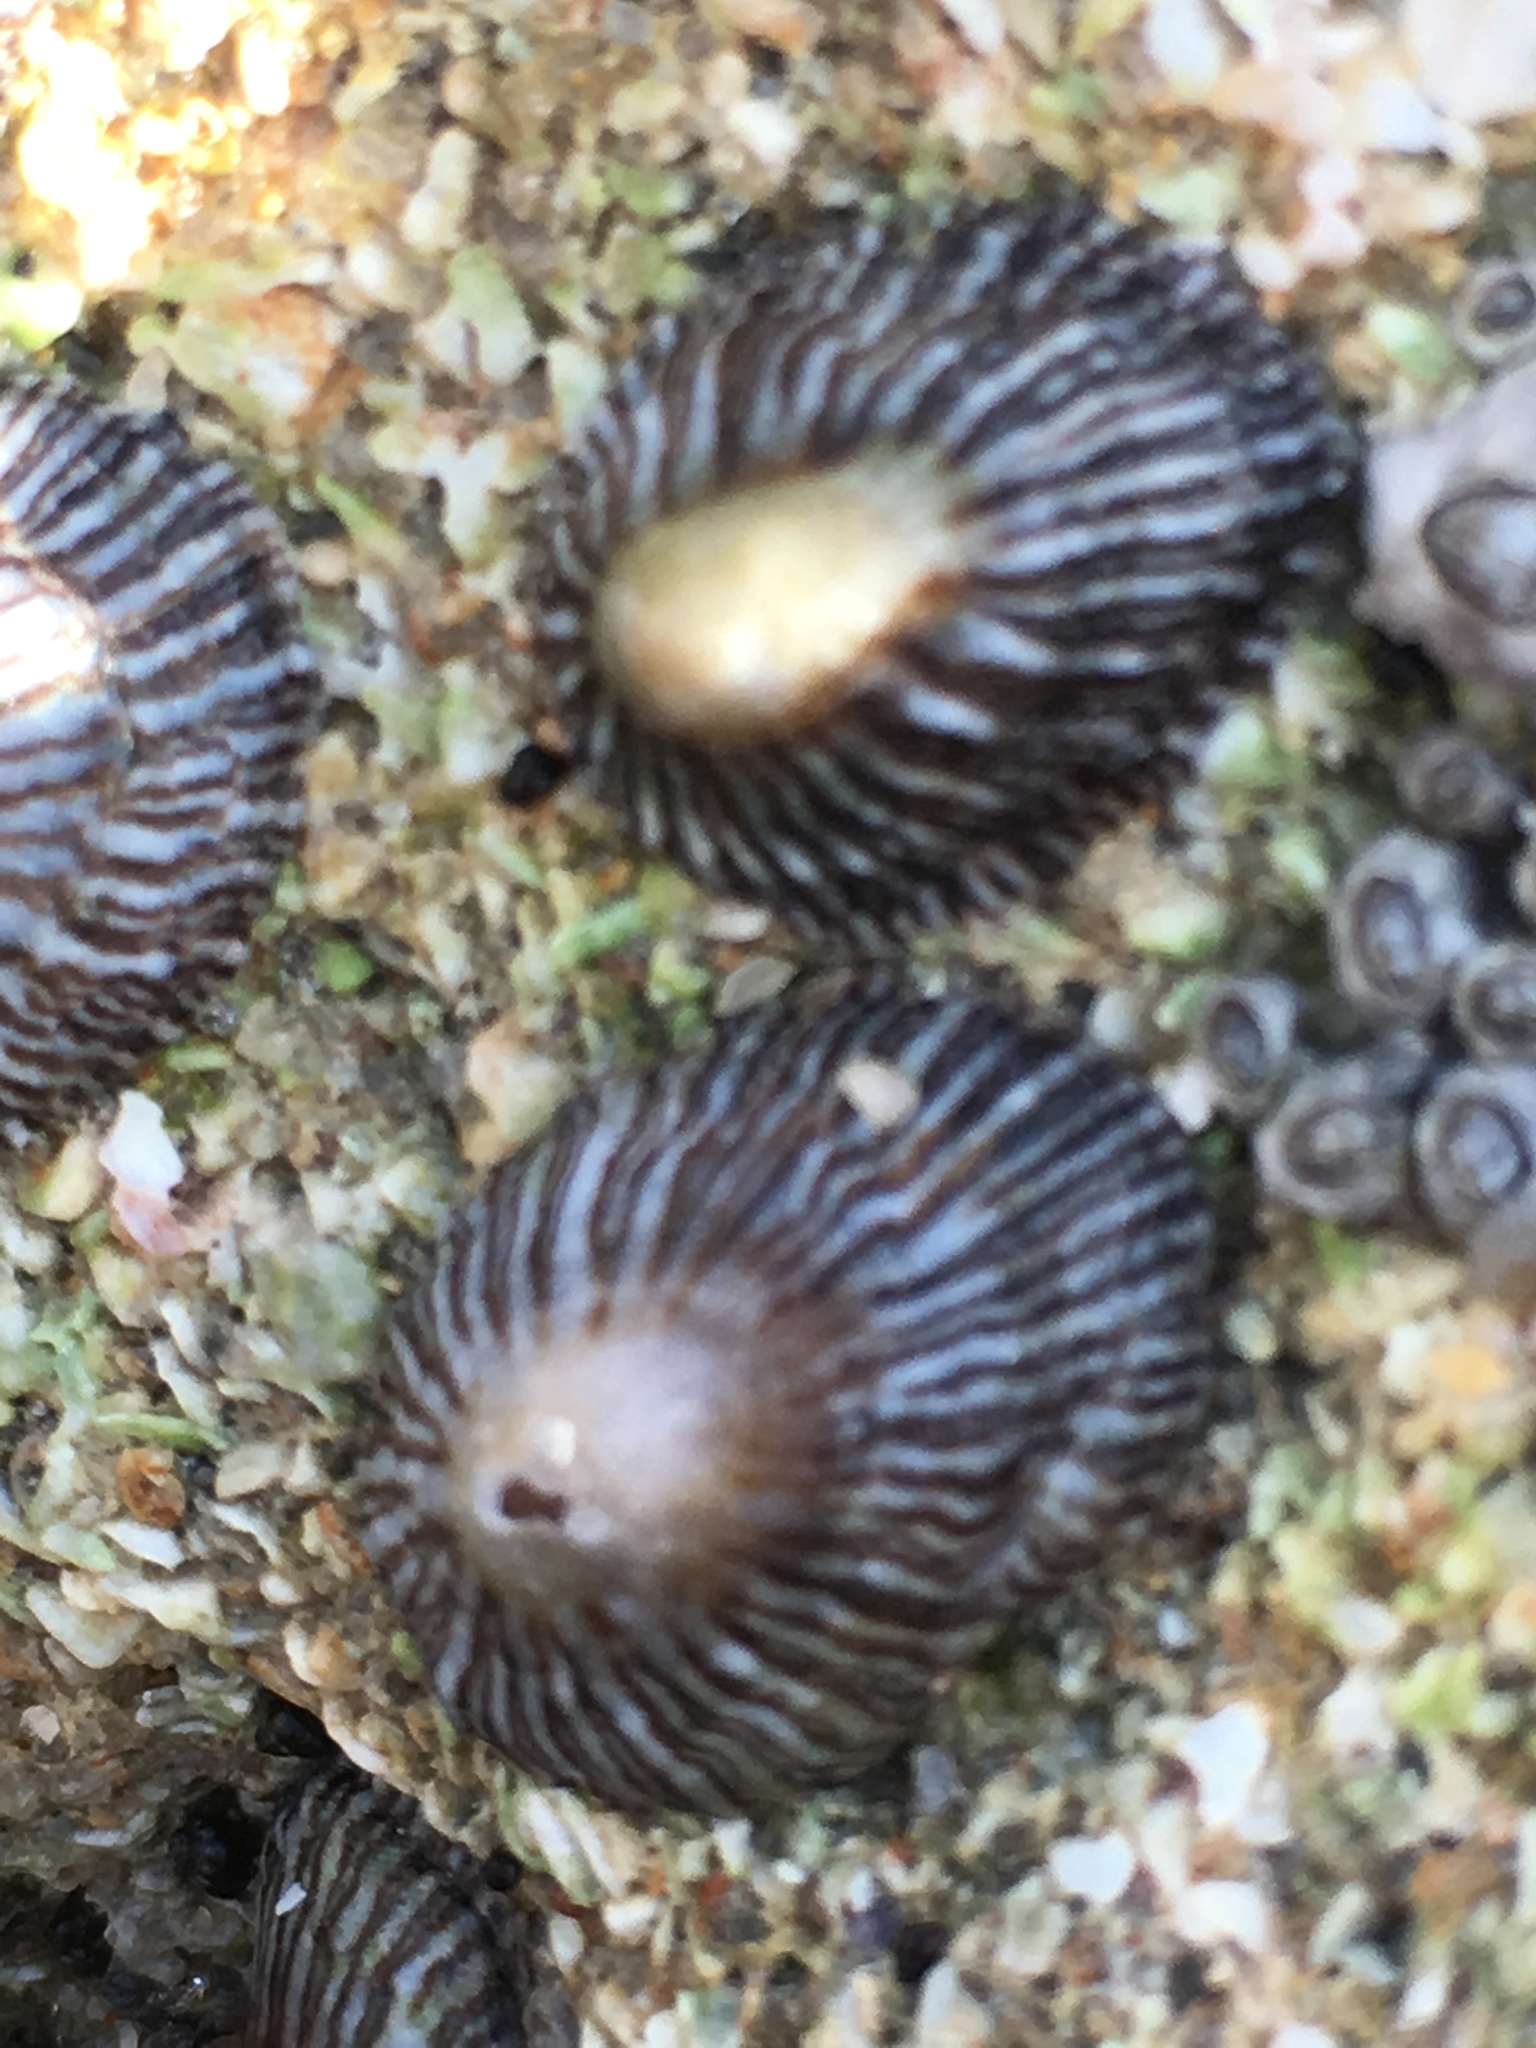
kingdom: Animalia
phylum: Mollusca
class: Gastropoda
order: Siphonariida
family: Siphonariidae
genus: Siphonaria
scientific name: Siphonaria naufragum
